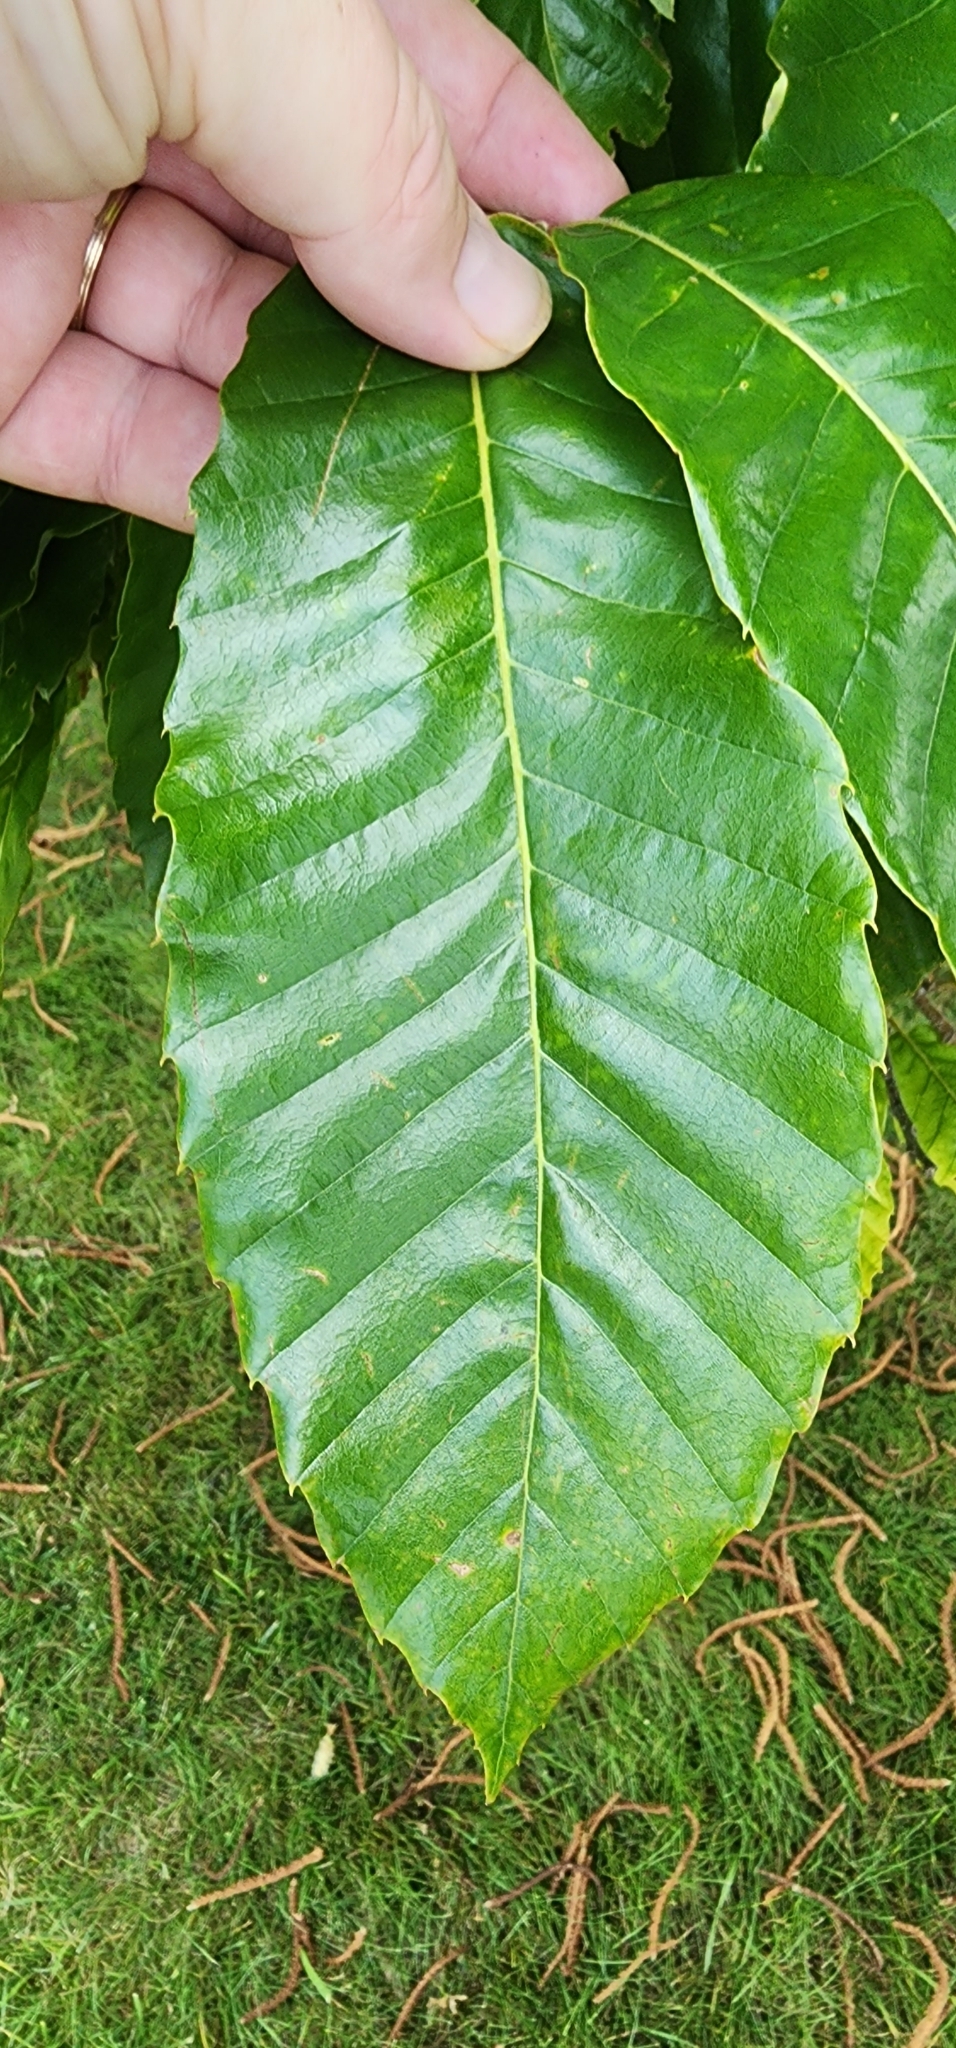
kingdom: Plantae
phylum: Tracheophyta
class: Magnoliopsida
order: Fagales
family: Fagaceae
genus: Castanea
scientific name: Castanea mollissima
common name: Chinese chestnut
